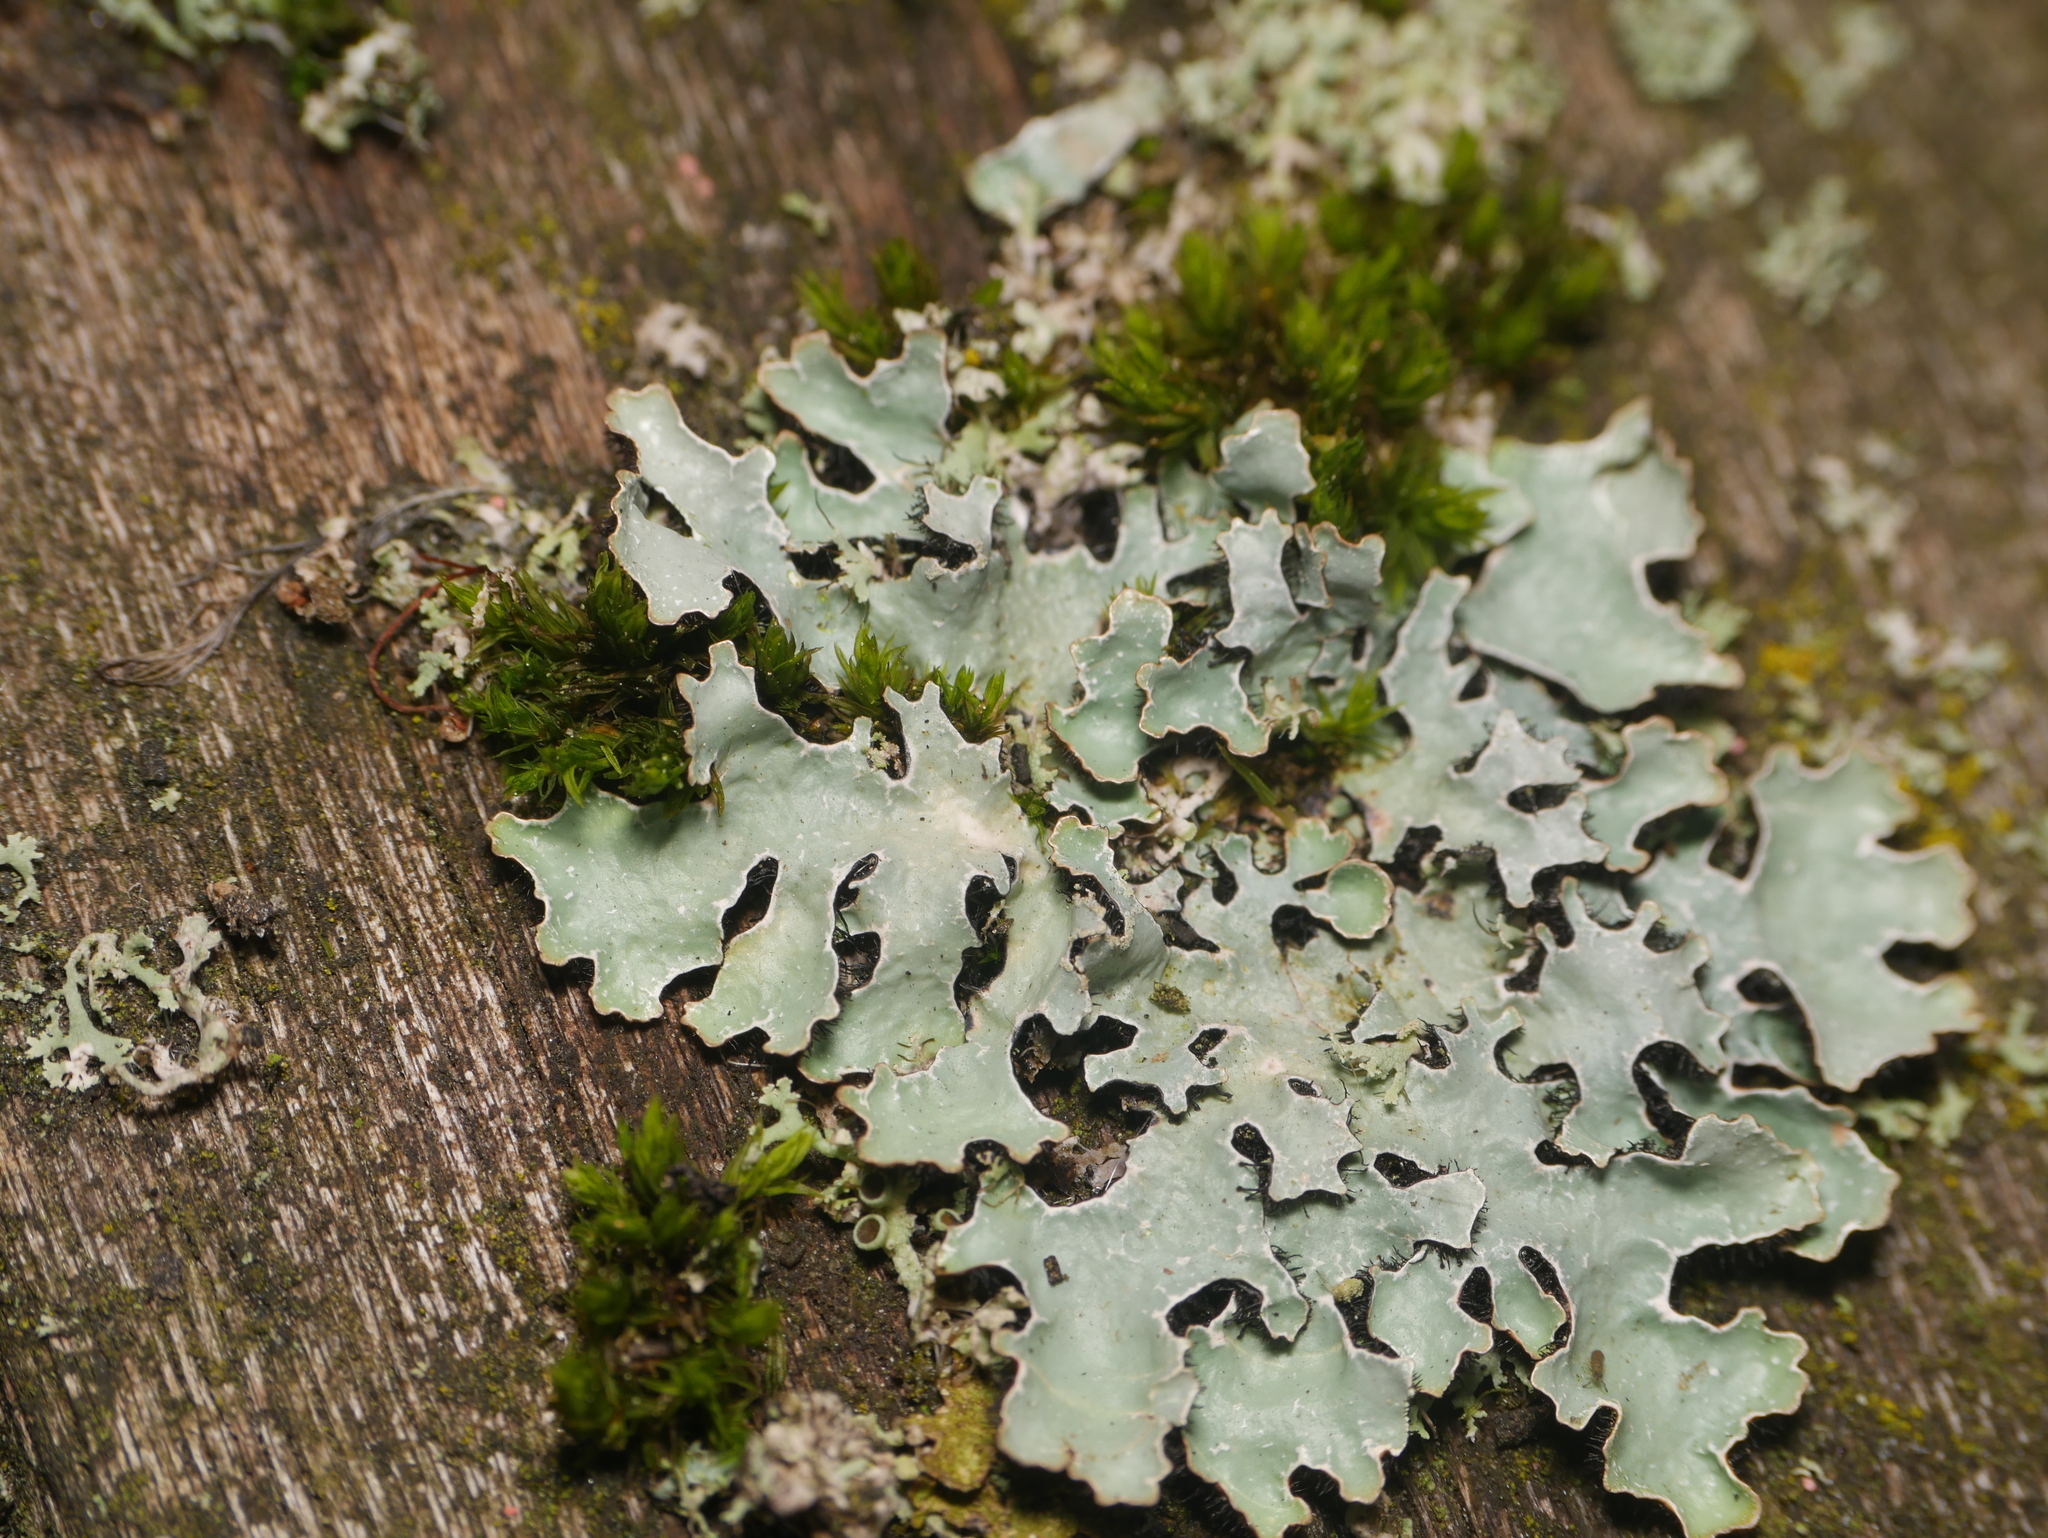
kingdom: Fungi
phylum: Ascomycota
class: Lecanoromycetes
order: Lecanorales
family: Parmeliaceae
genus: Parmelia
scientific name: Parmelia sulcata
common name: Netted shield lichen
